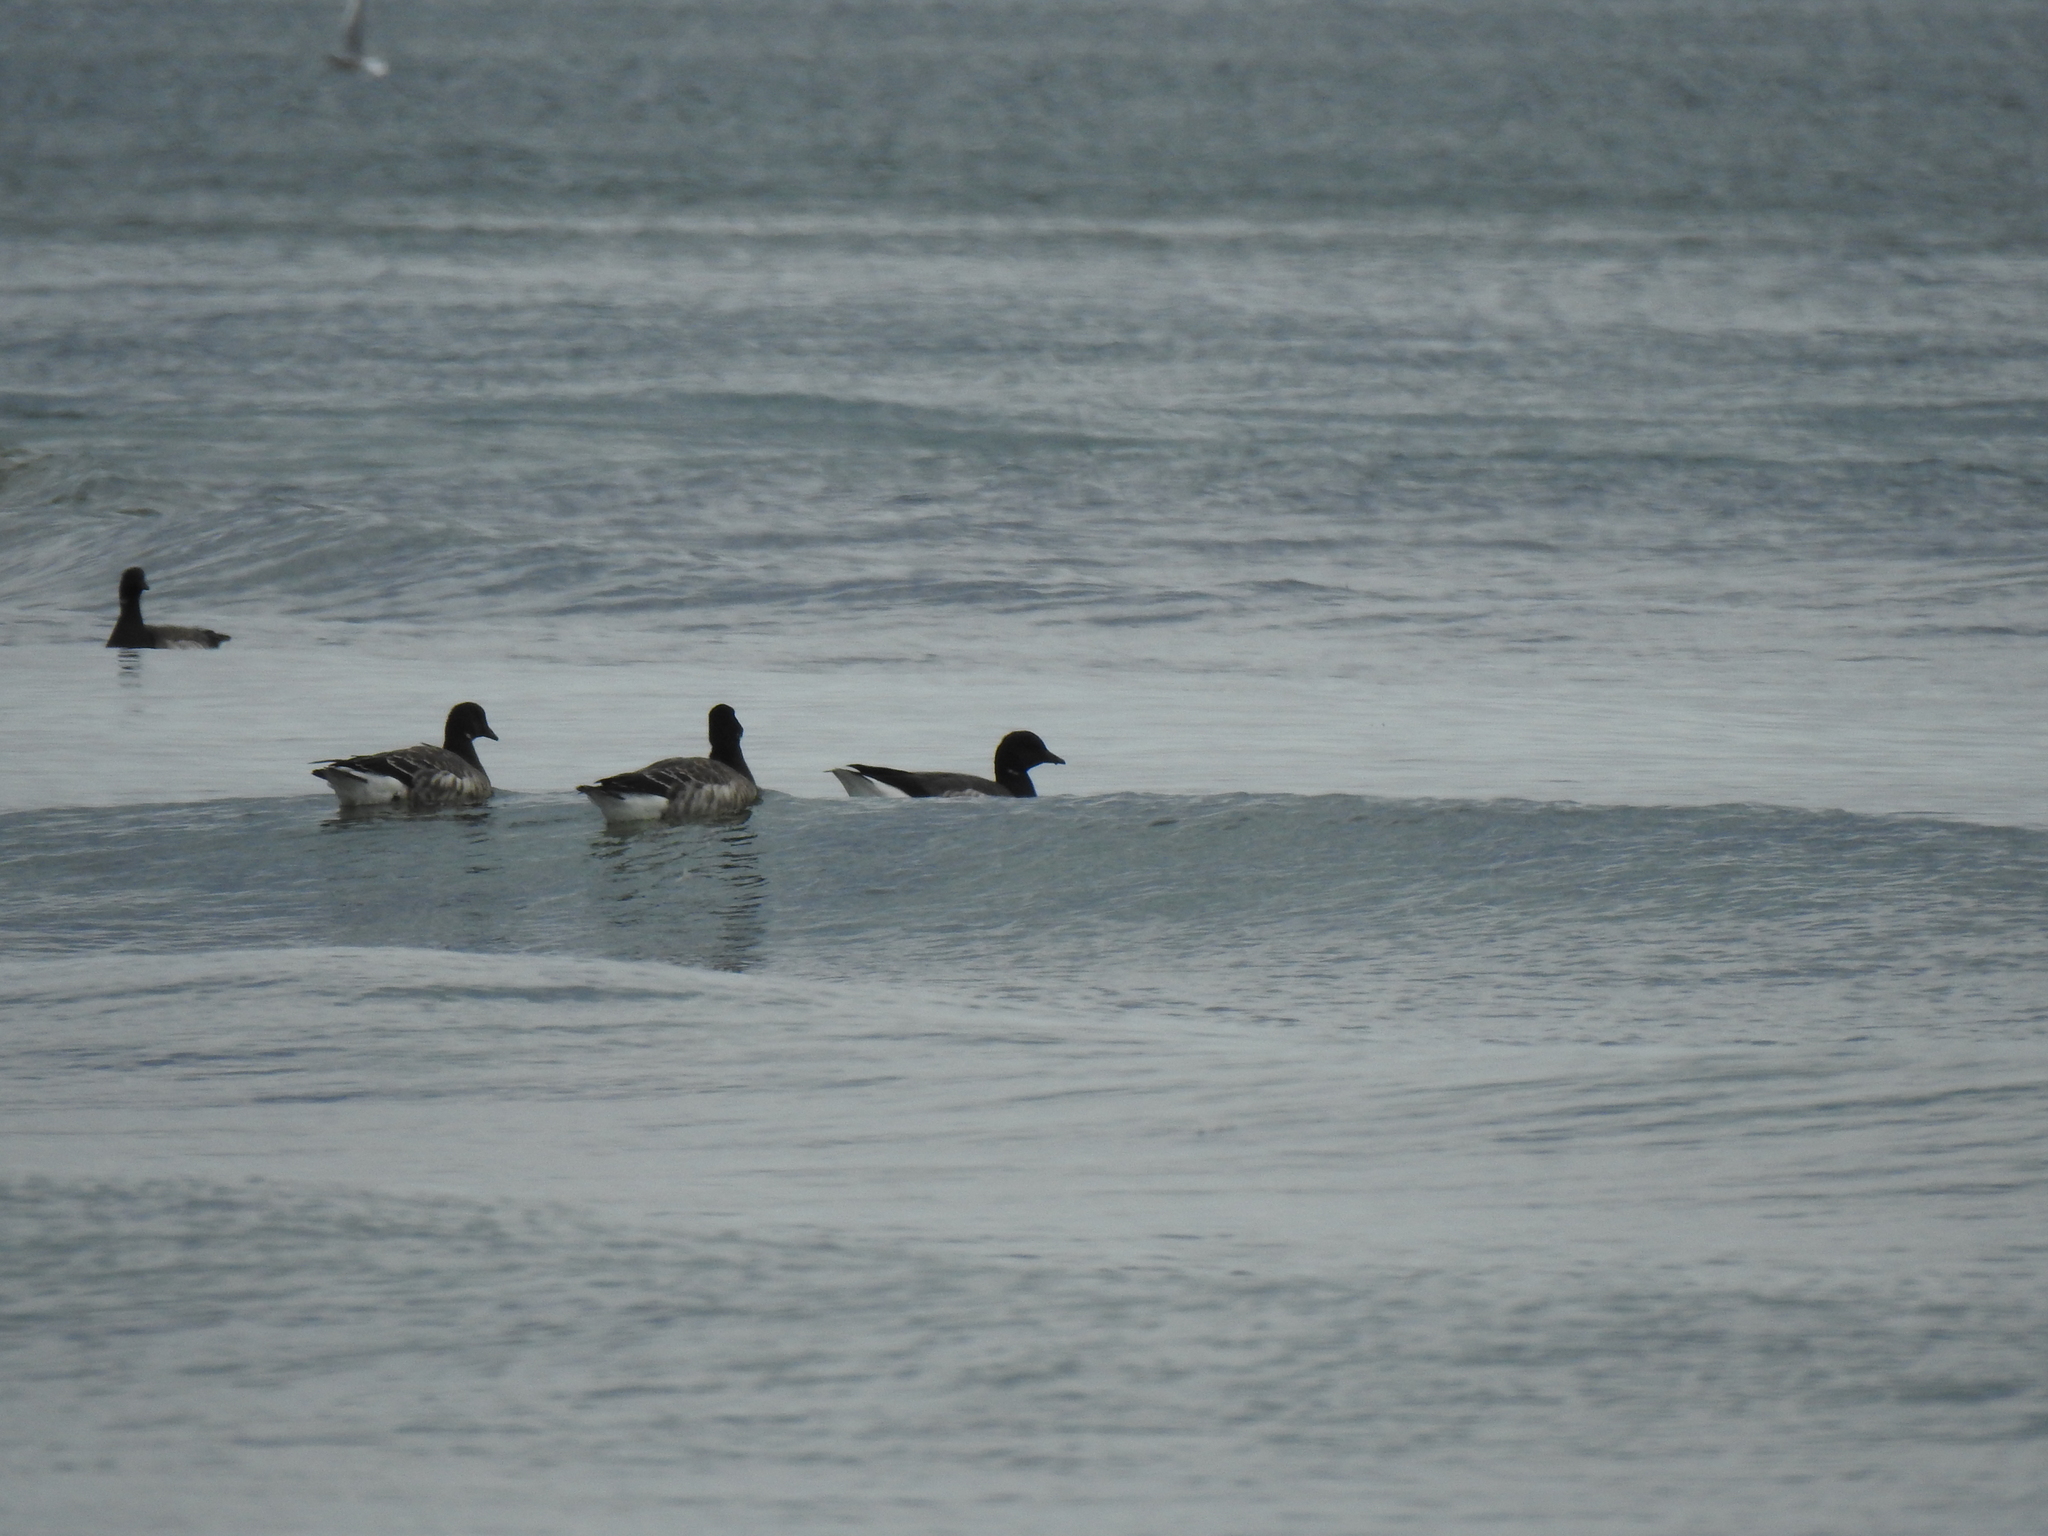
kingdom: Animalia
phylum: Chordata
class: Aves
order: Anseriformes
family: Anatidae
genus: Branta
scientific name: Branta bernicla
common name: Brant goose
